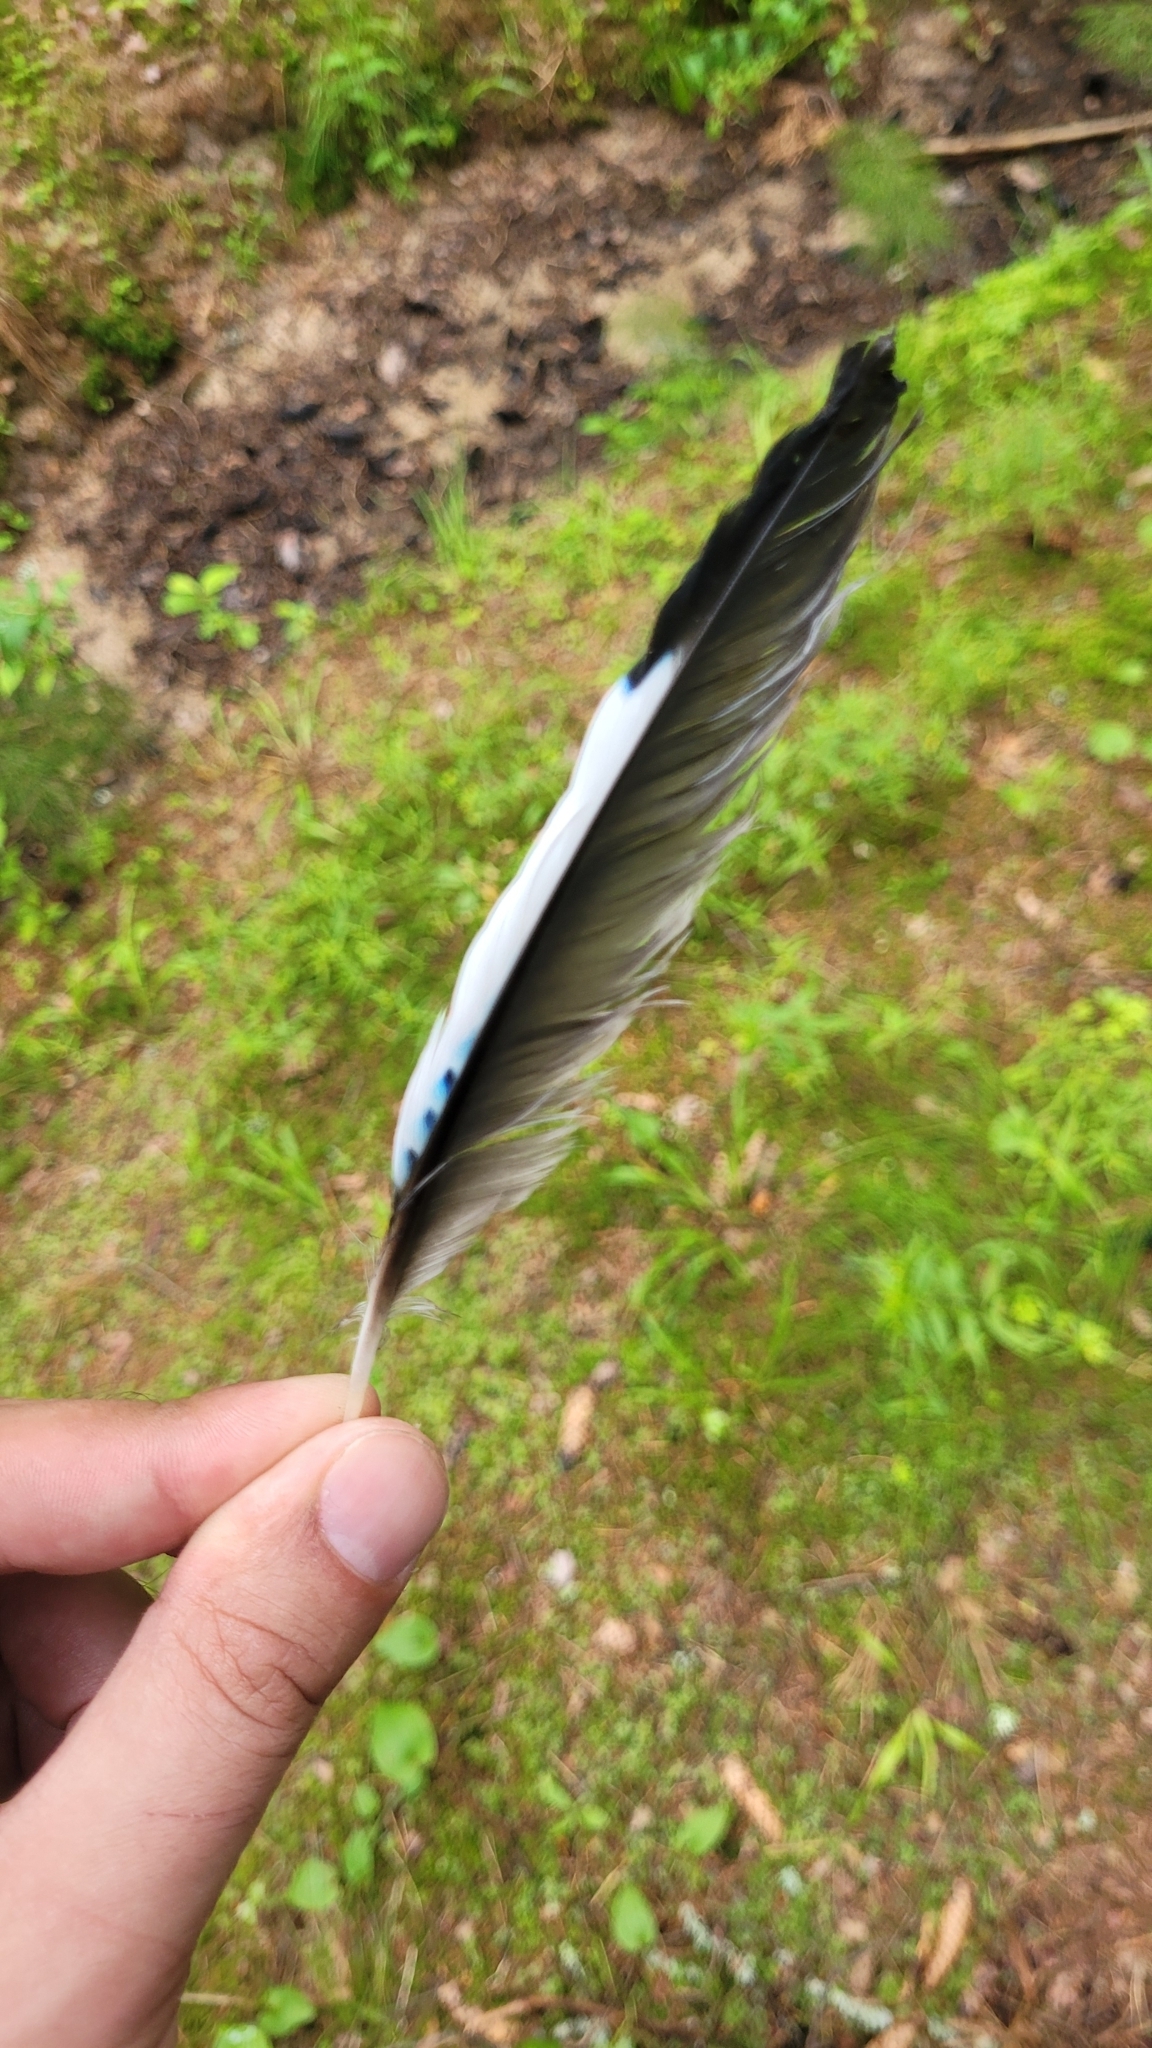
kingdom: Animalia
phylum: Chordata
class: Aves
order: Passeriformes
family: Corvidae
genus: Garrulus
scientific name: Garrulus glandarius
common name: Eurasian jay
